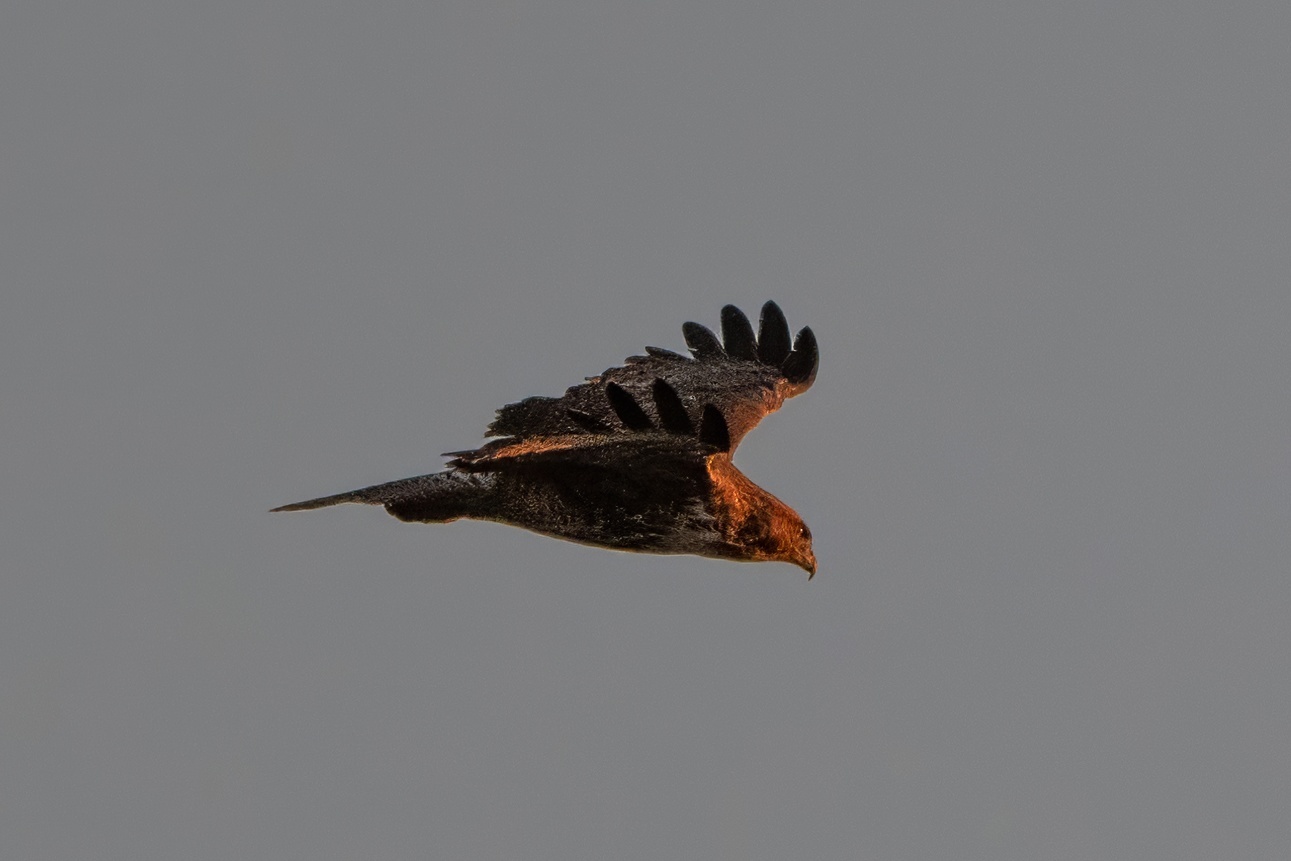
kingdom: Animalia
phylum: Chordata
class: Aves
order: Accipitriformes
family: Accipitridae
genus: Buteo
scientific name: Buteo jamaicensis
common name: Red-tailed hawk
